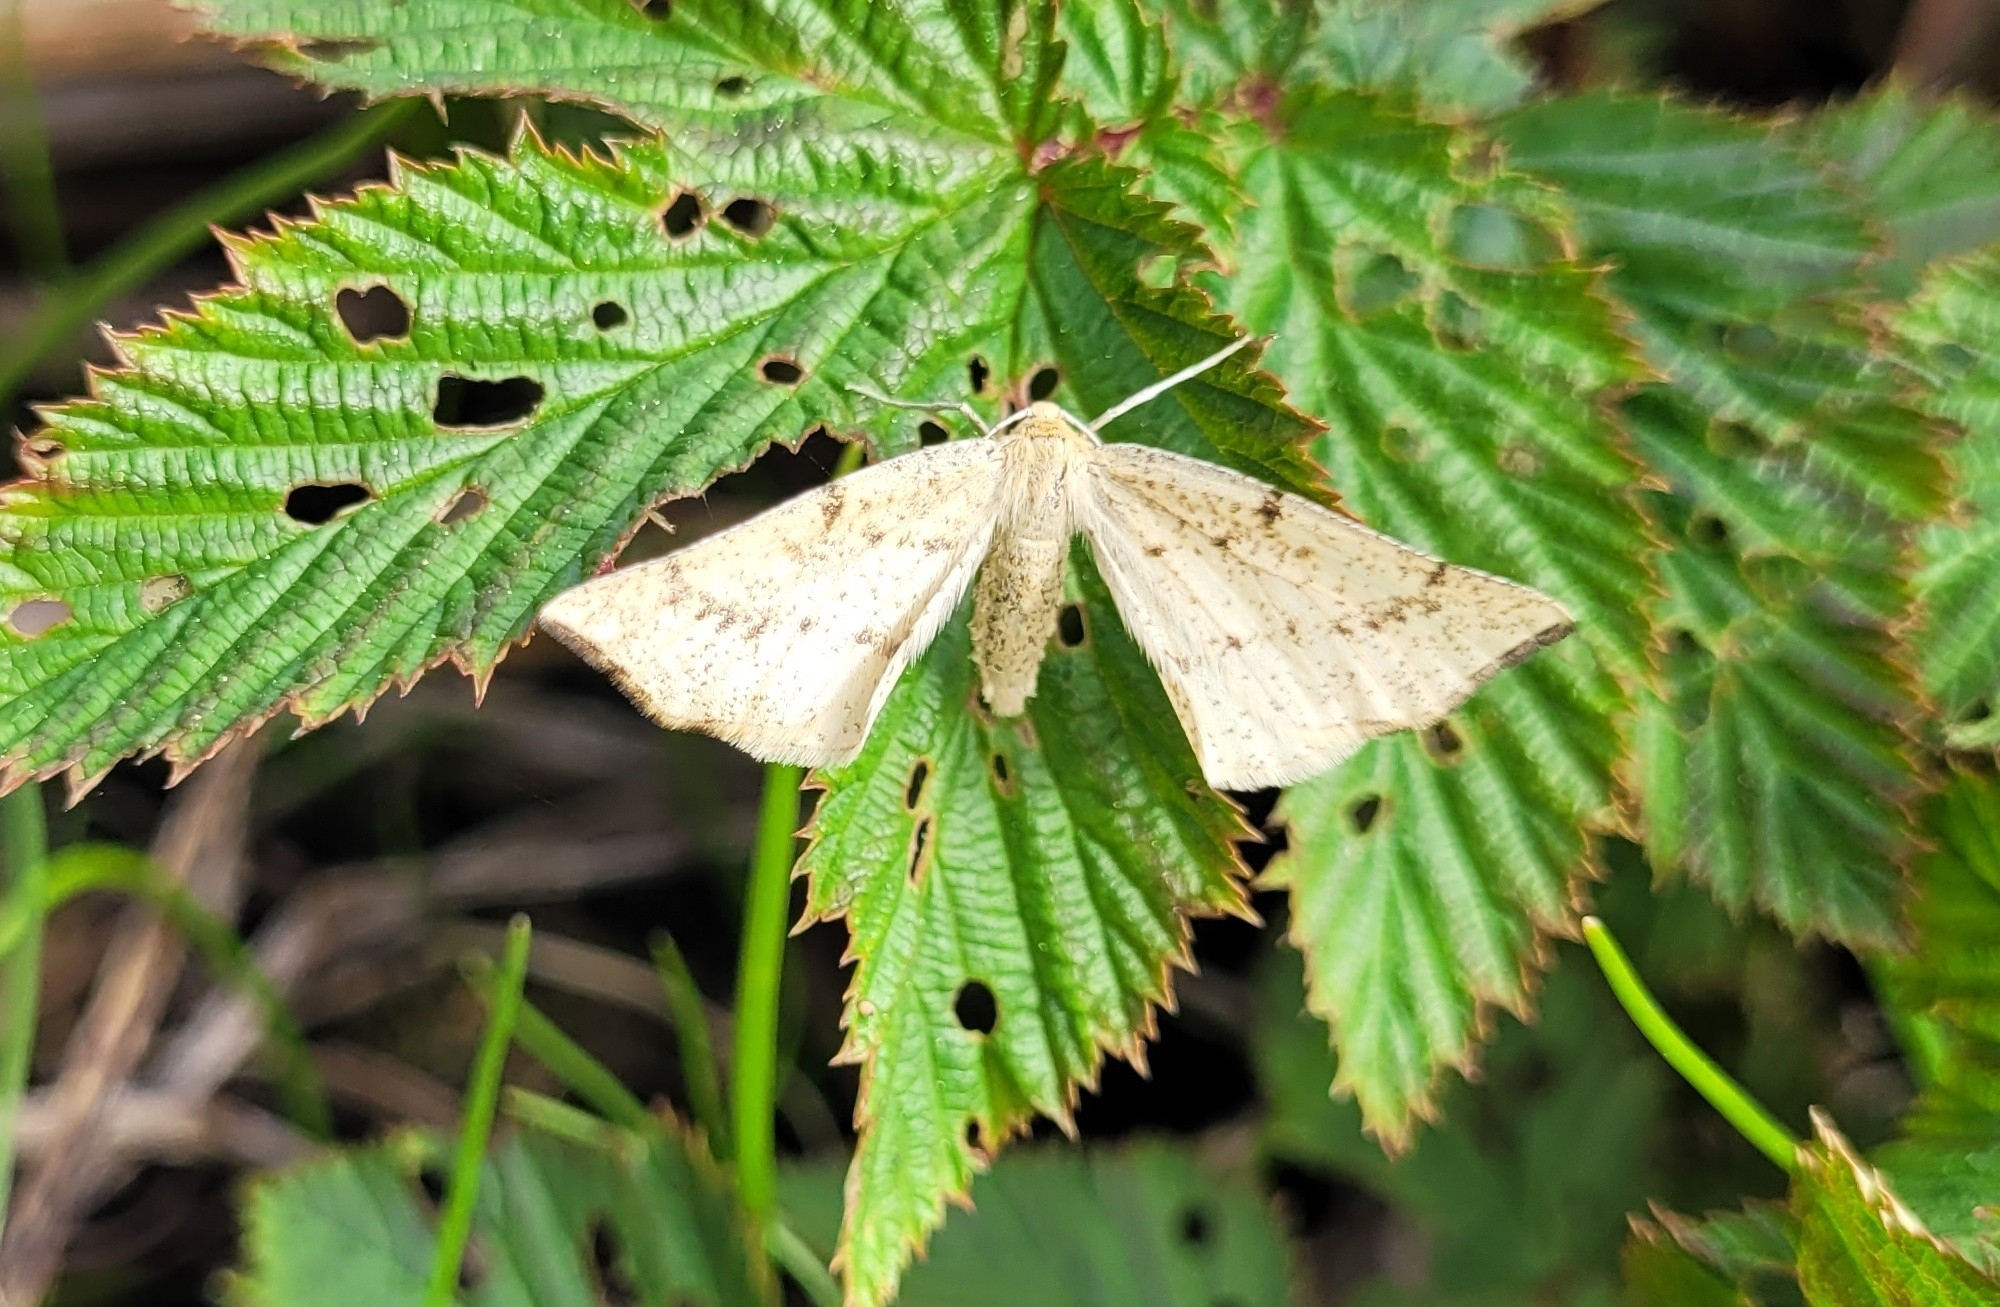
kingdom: Animalia
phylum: Arthropoda
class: Insecta
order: Lepidoptera
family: Geometridae
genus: Hypoxystis
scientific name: Hypoxystis pluviaria
